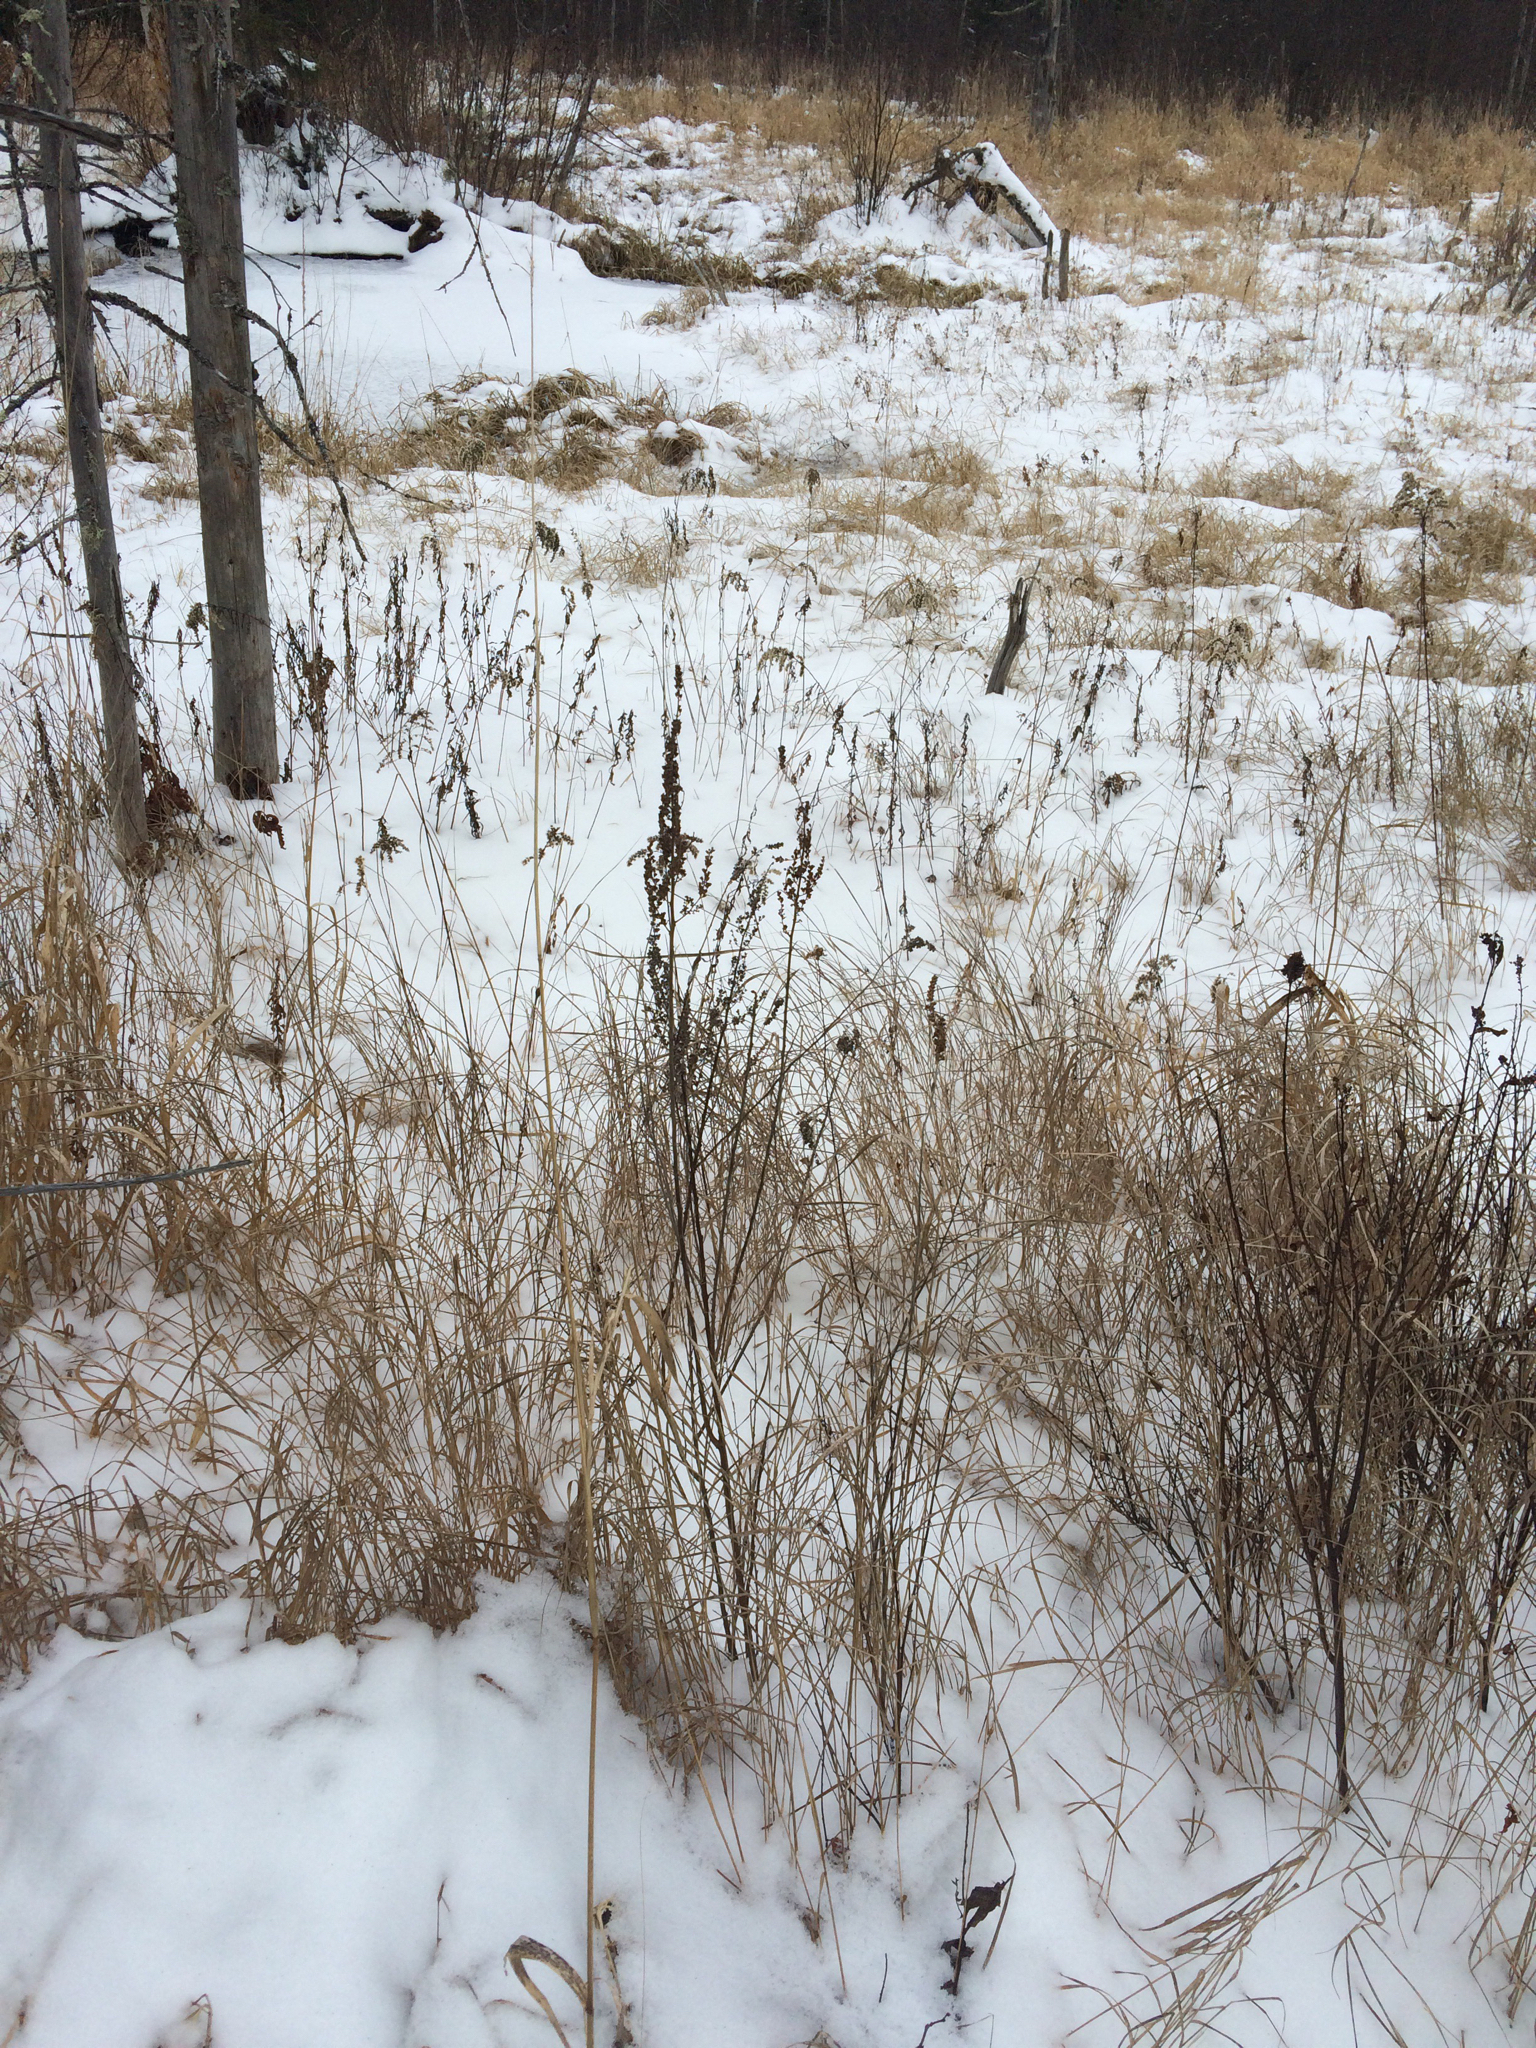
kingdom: Plantae
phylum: Tracheophyta
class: Magnoliopsida
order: Rosales
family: Rosaceae
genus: Spiraea
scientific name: Spiraea tomentosa
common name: Hardhack
